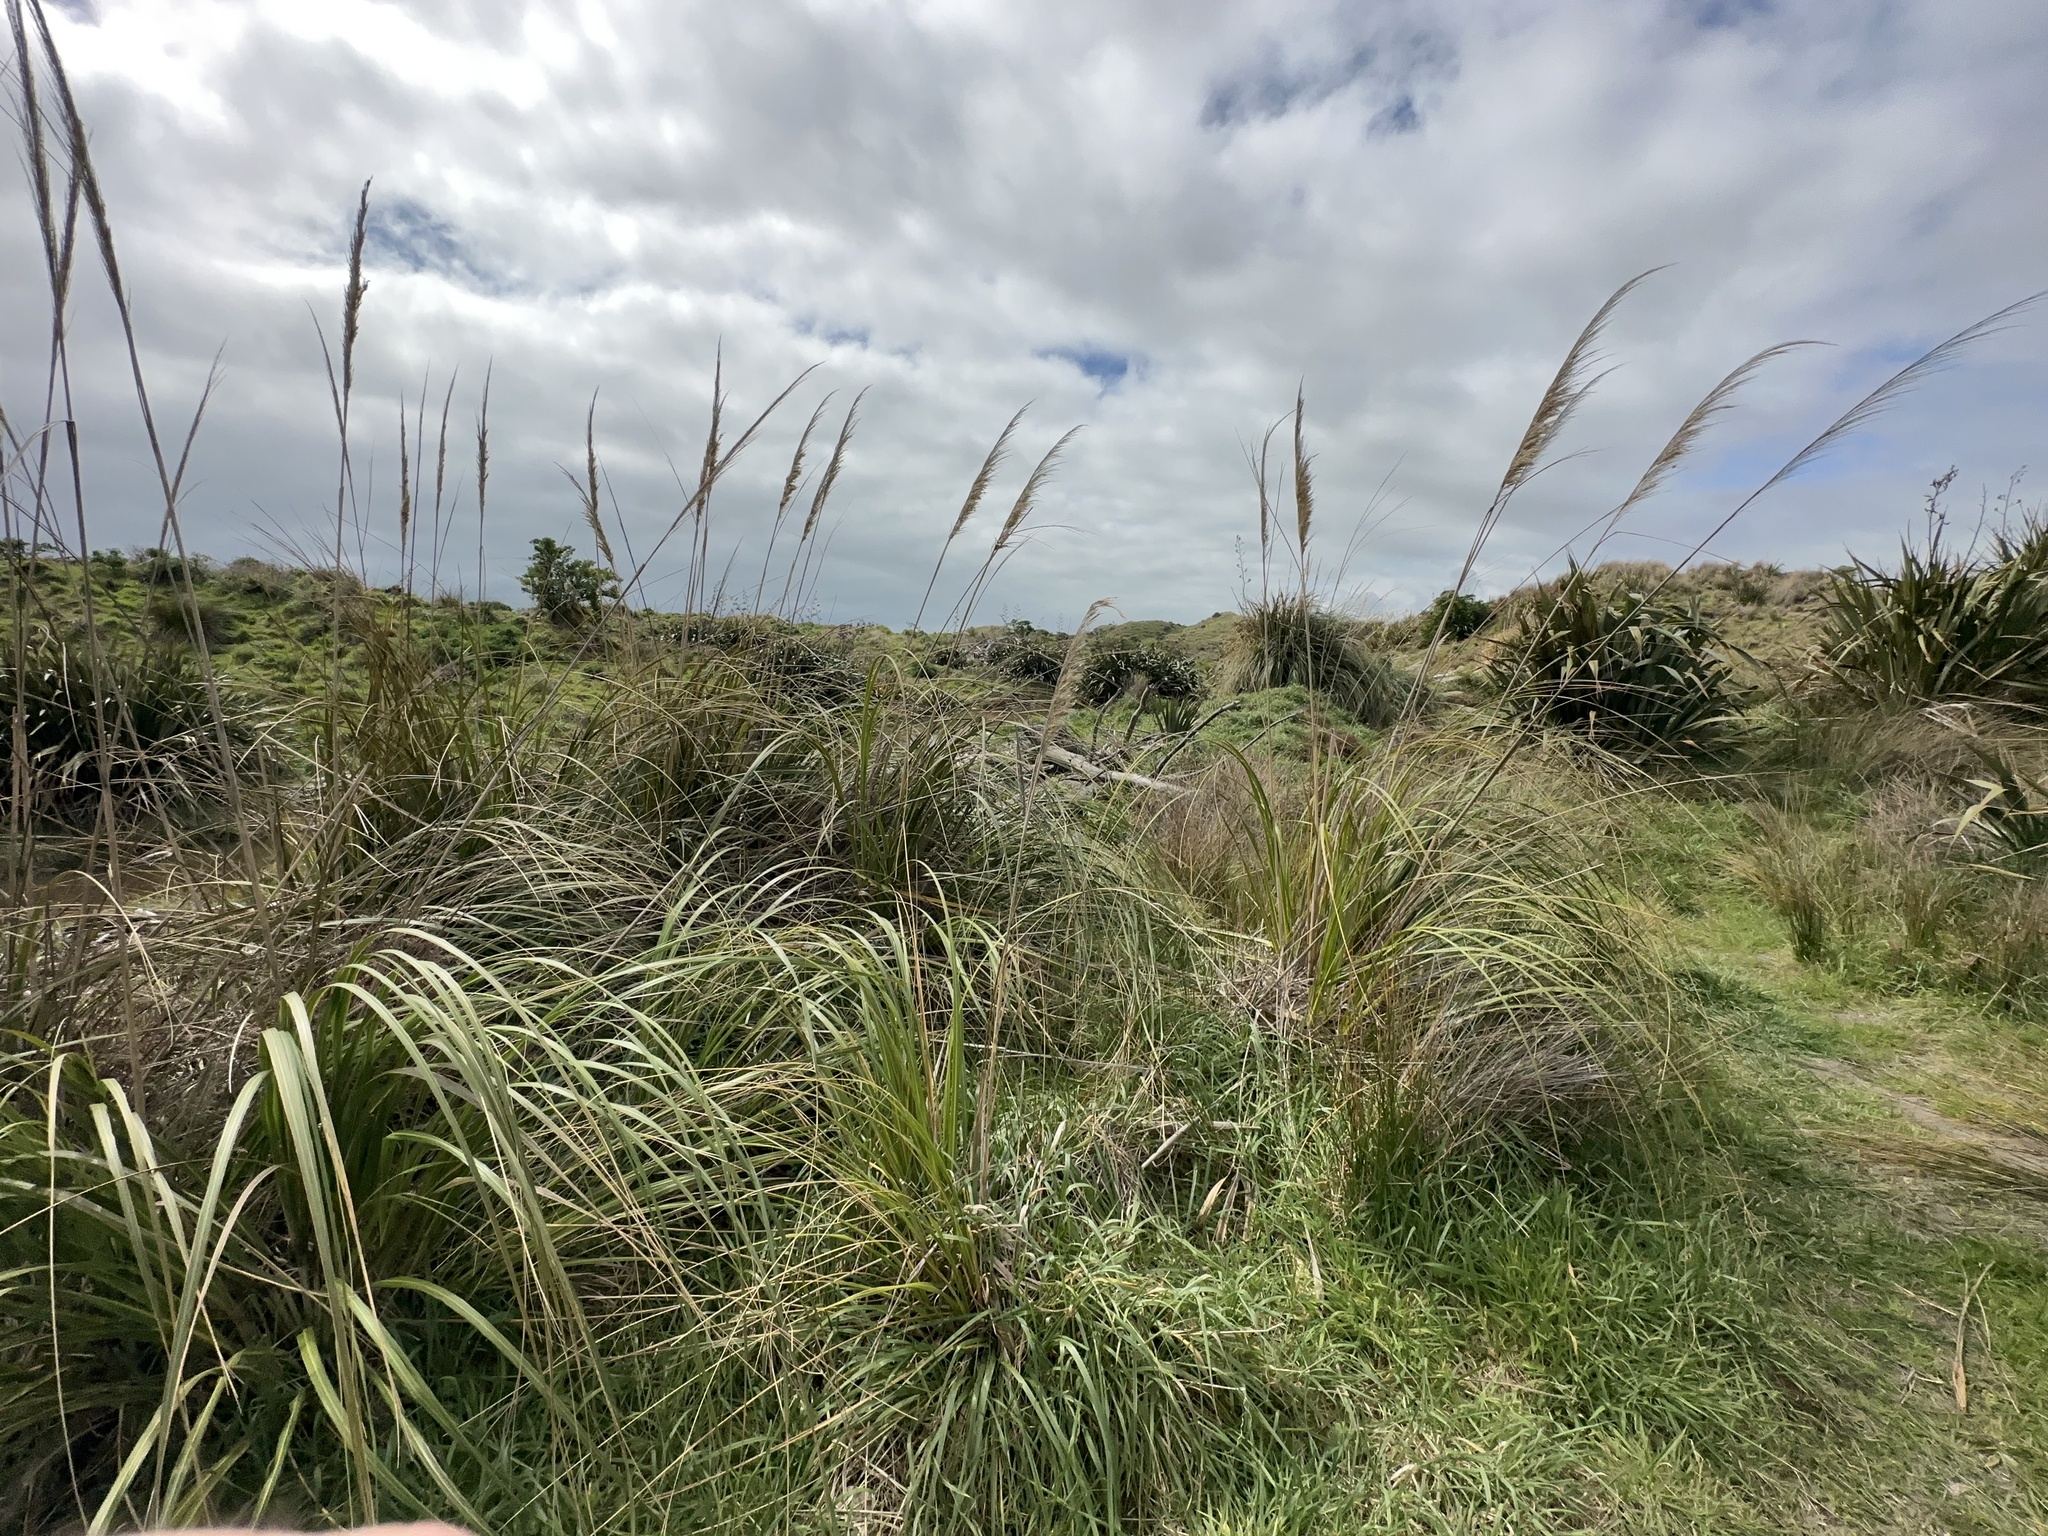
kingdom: Plantae
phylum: Tracheophyta
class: Liliopsida
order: Poales
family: Poaceae
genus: Cortaderia
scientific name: Cortaderia selloana
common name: Uruguayan pampas grass
